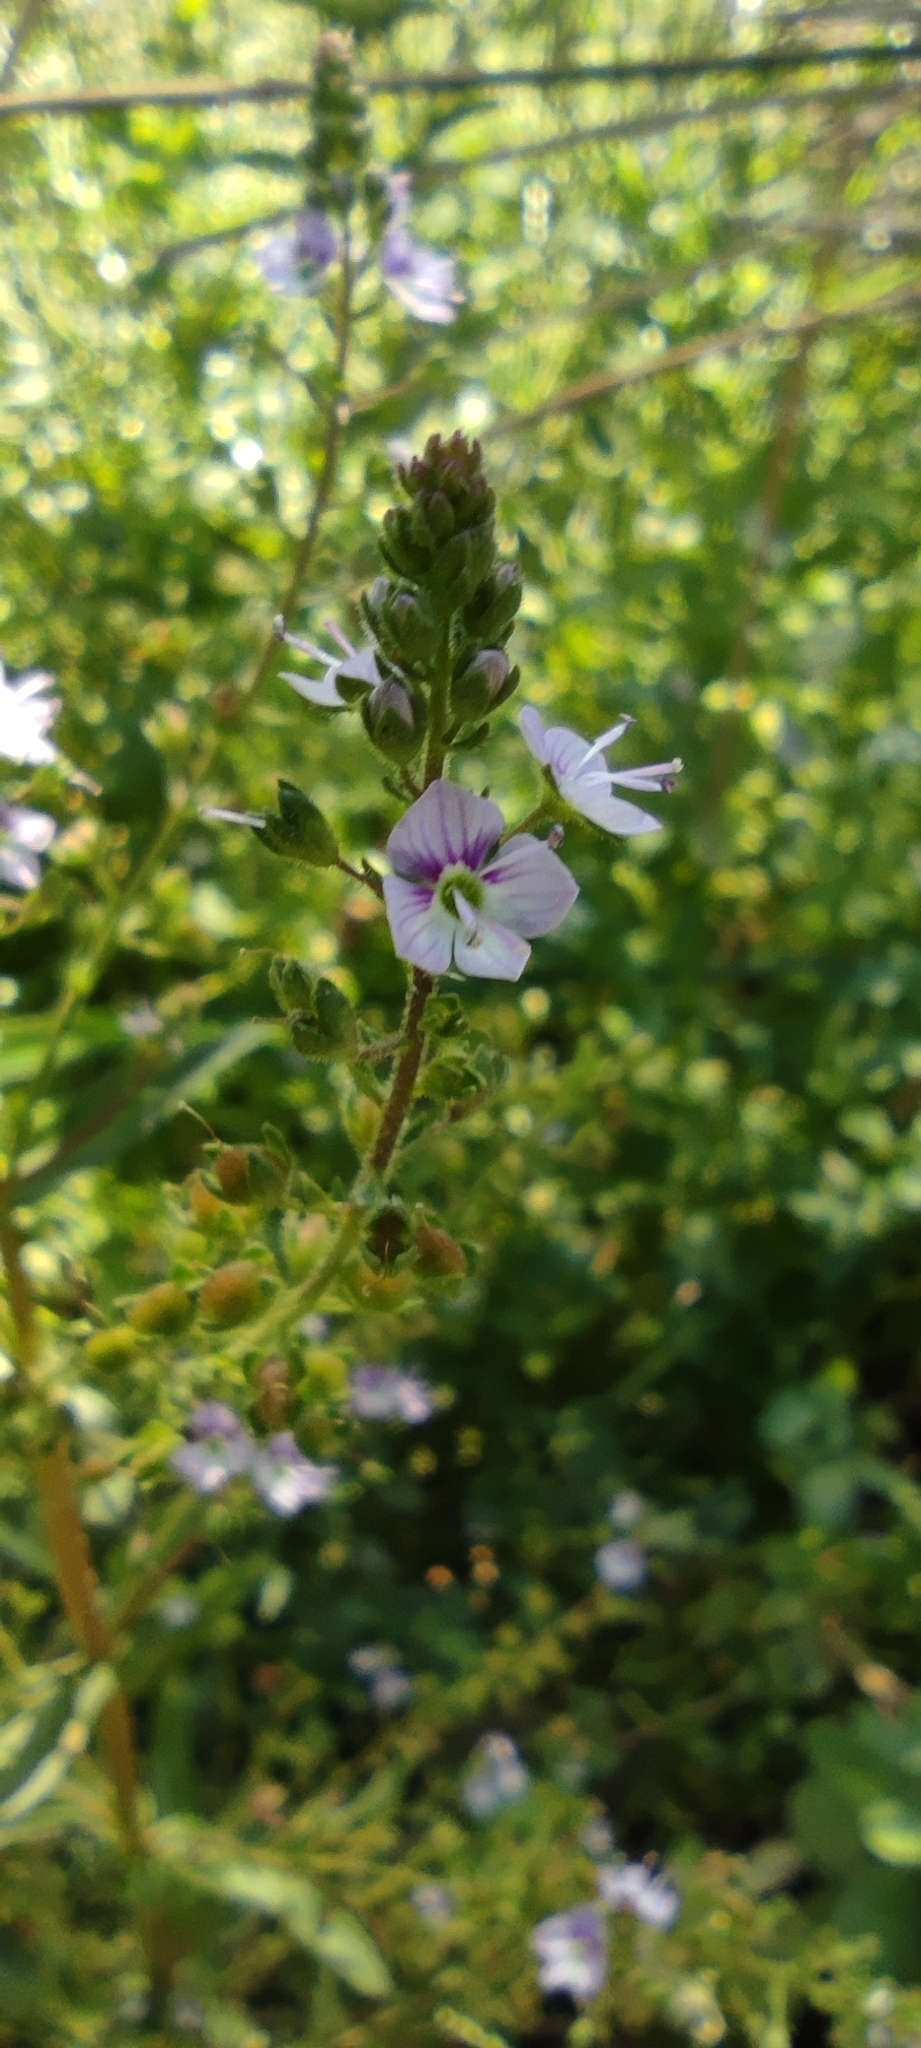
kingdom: Plantae
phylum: Tracheophyta
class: Magnoliopsida
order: Lamiales
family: Plantaginaceae
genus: Veronica
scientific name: Veronica anagallis-aquatica
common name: Water speedwell
